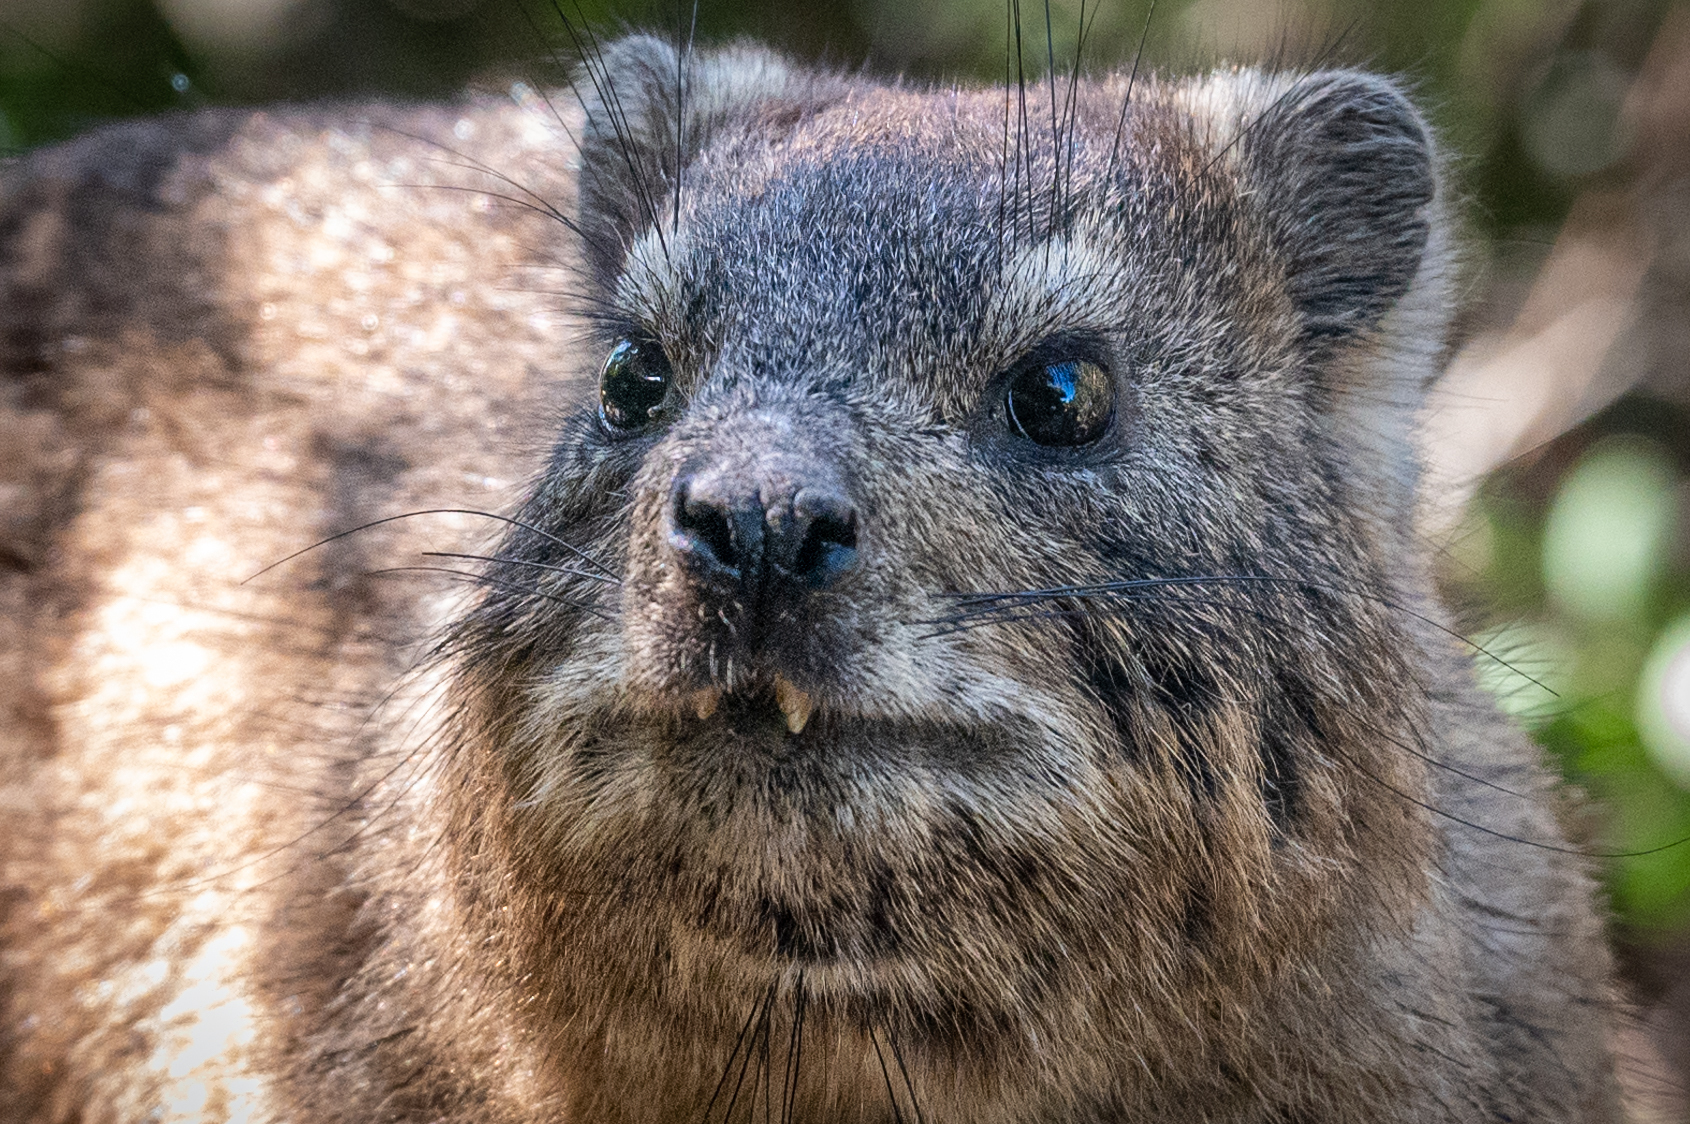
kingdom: Animalia
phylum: Chordata
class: Mammalia
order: Hyracoidea
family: Procaviidae
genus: Procavia
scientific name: Procavia capensis
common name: Rock hyrax
